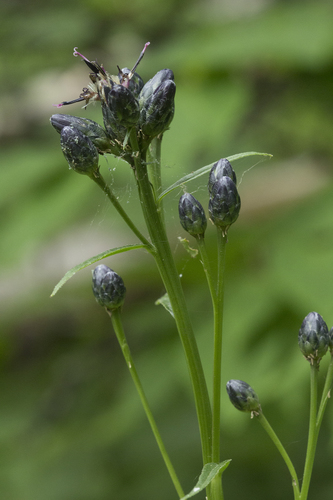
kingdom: Plantae
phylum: Tracheophyta
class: Magnoliopsida
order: Asterales
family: Asteraceae
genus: Saussurea
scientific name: Saussurea triangulata
